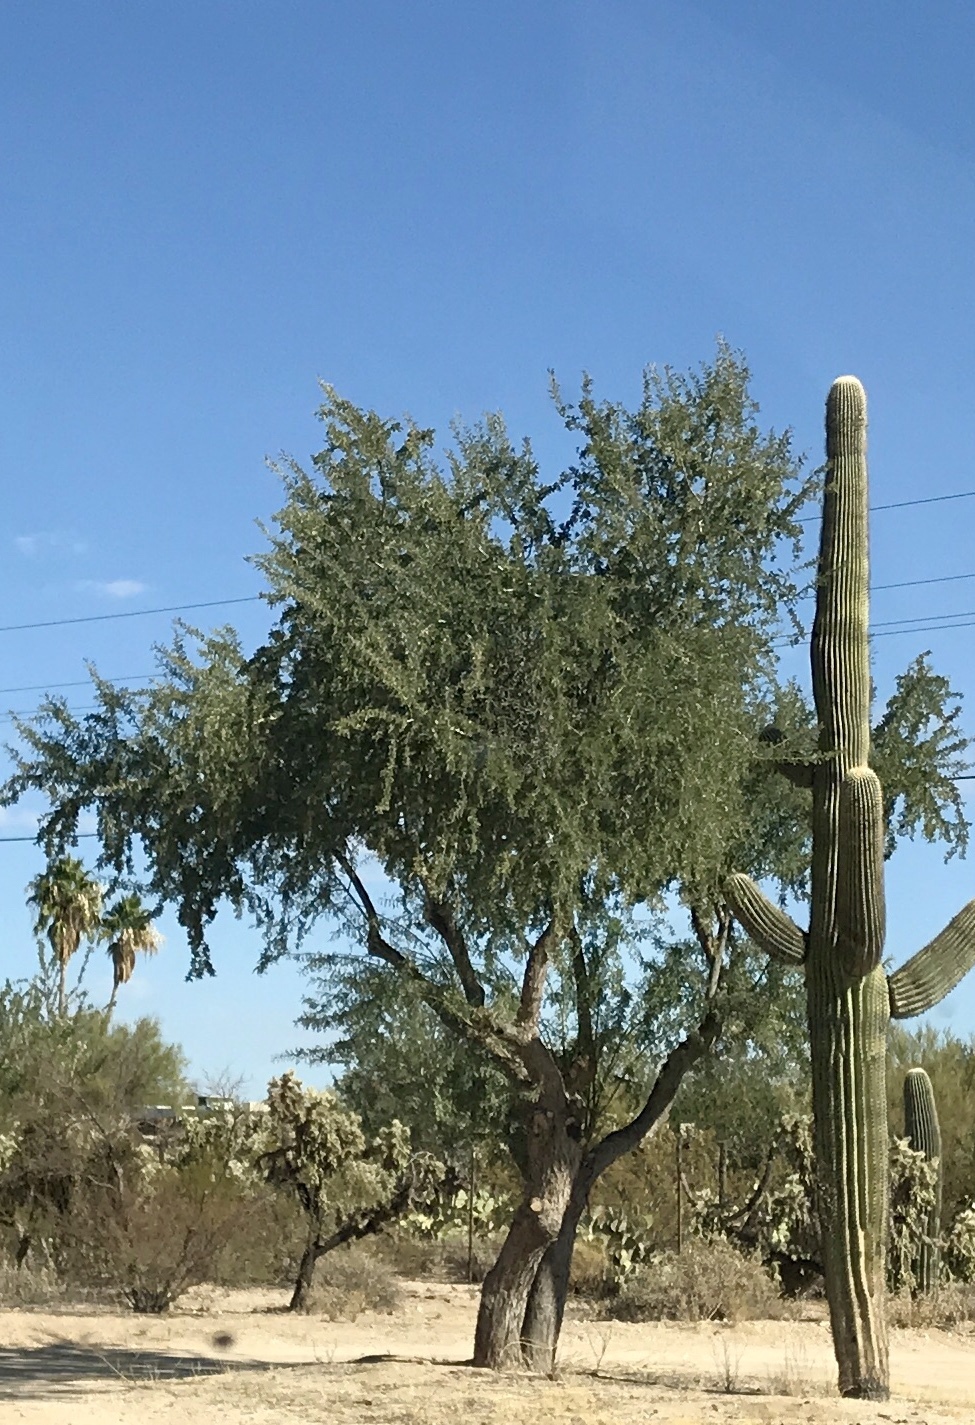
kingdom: Plantae
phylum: Tracheophyta
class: Magnoliopsida
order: Fabales
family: Fabaceae
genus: Olneya
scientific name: Olneya tesota
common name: Desert ironwood
